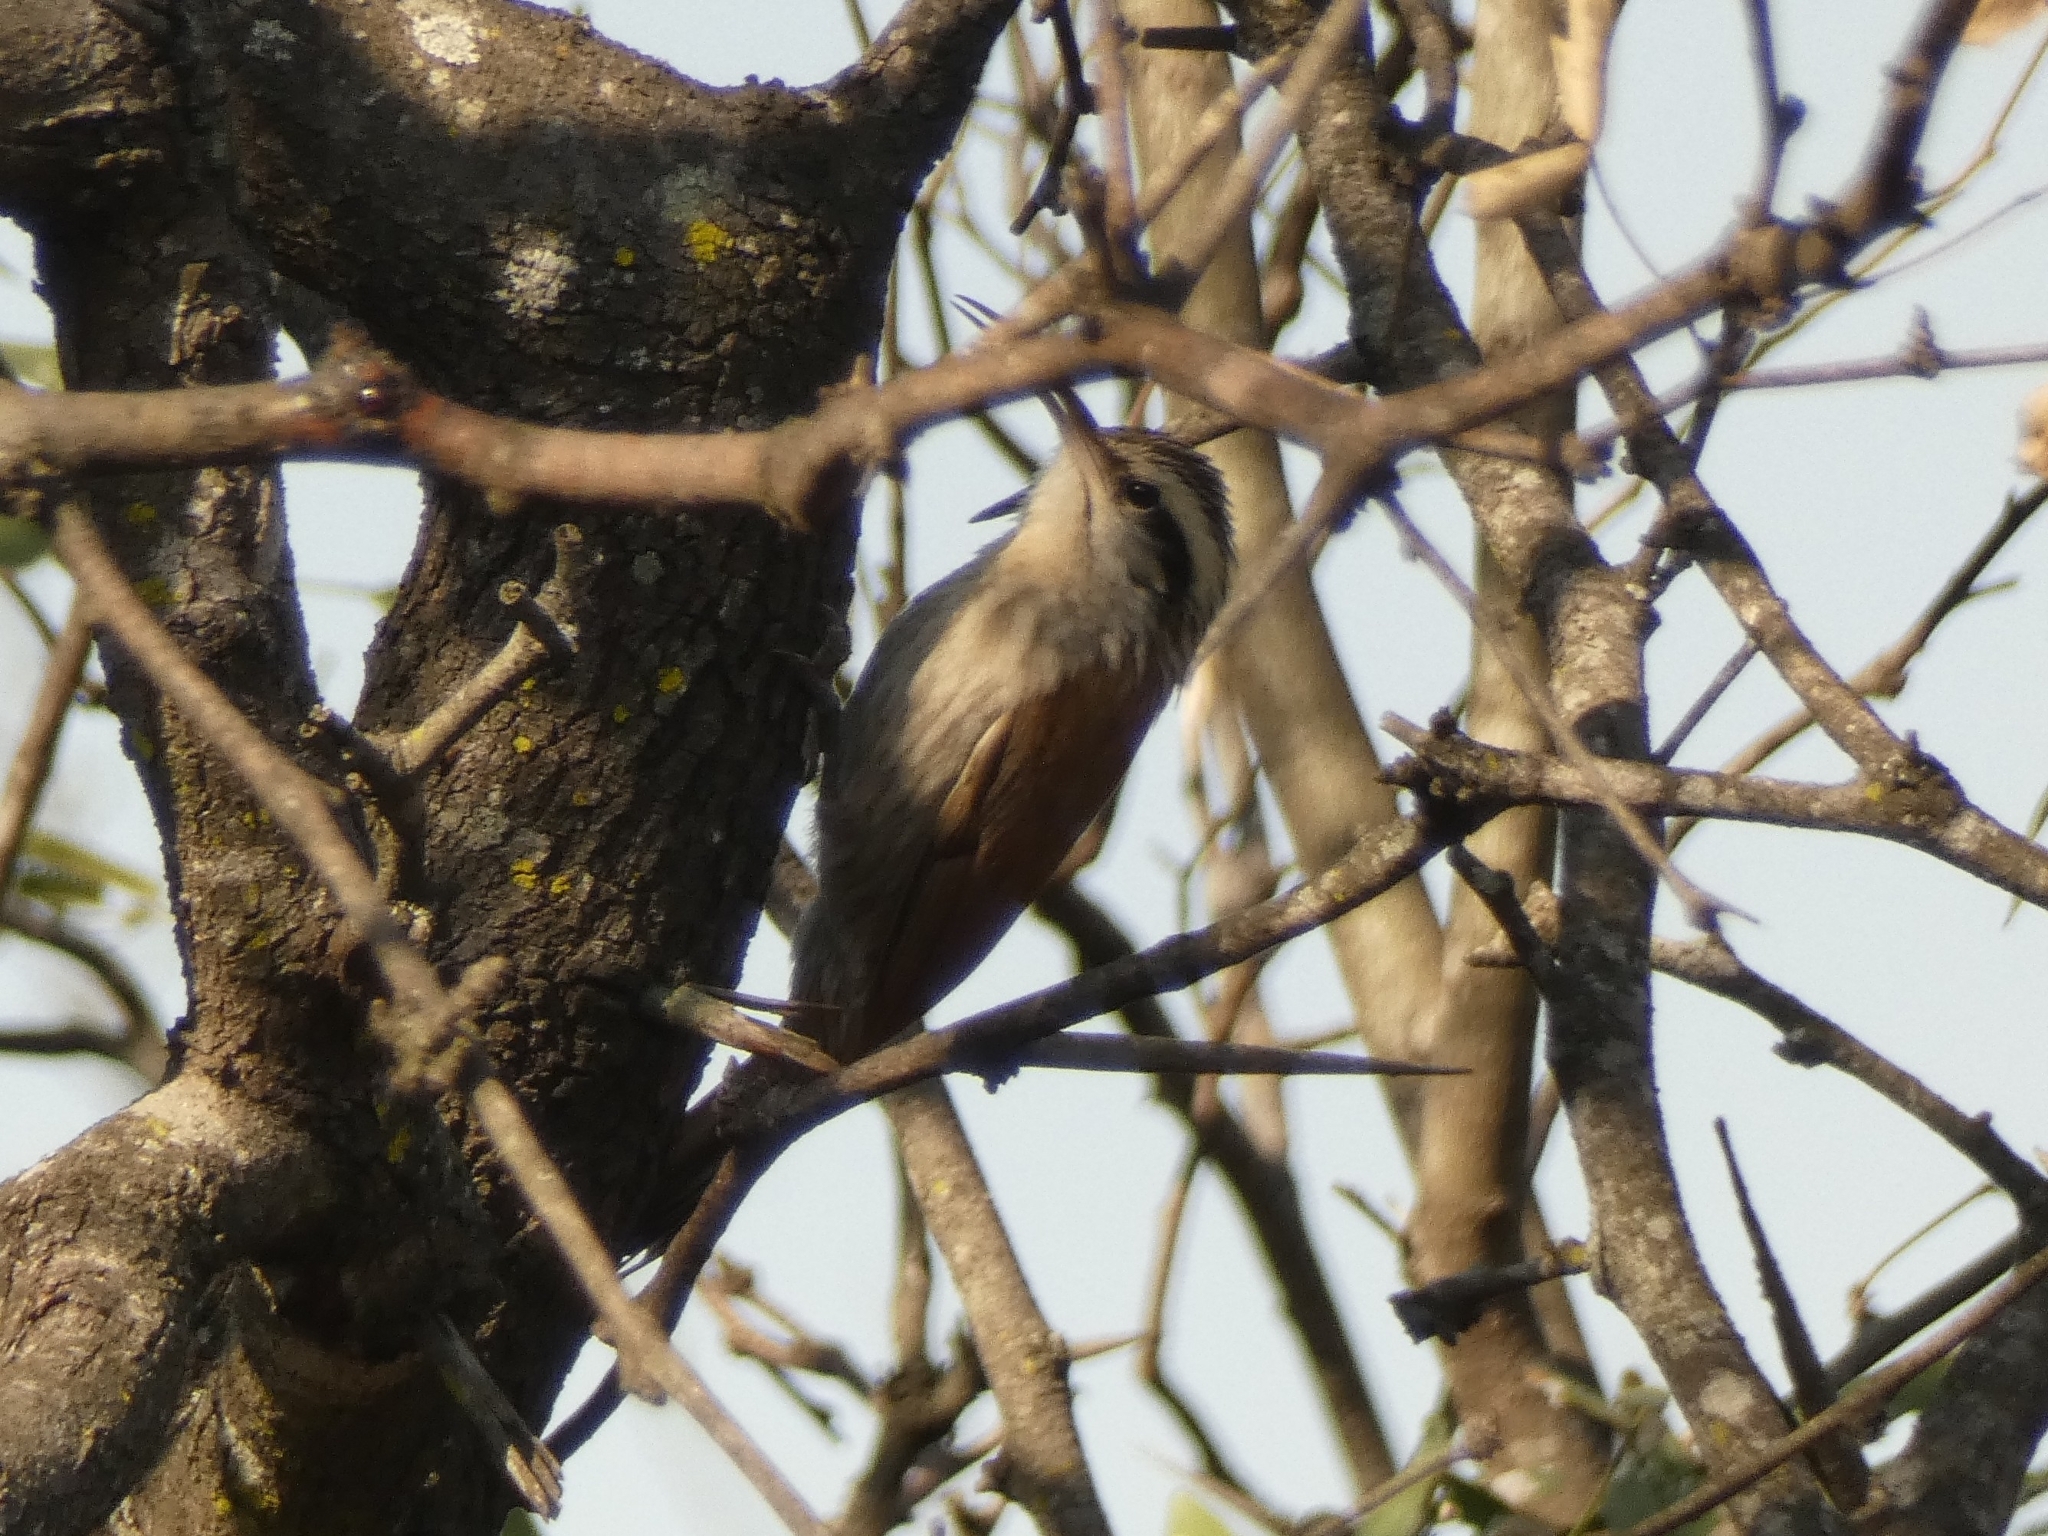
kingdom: Animalia
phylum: Chordata
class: Aves
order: Passeriformes
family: Furnariidae
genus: Lepidocolaptes
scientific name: Lepidocolaptes angustirostris
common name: Narrow-billed woodcreeper
